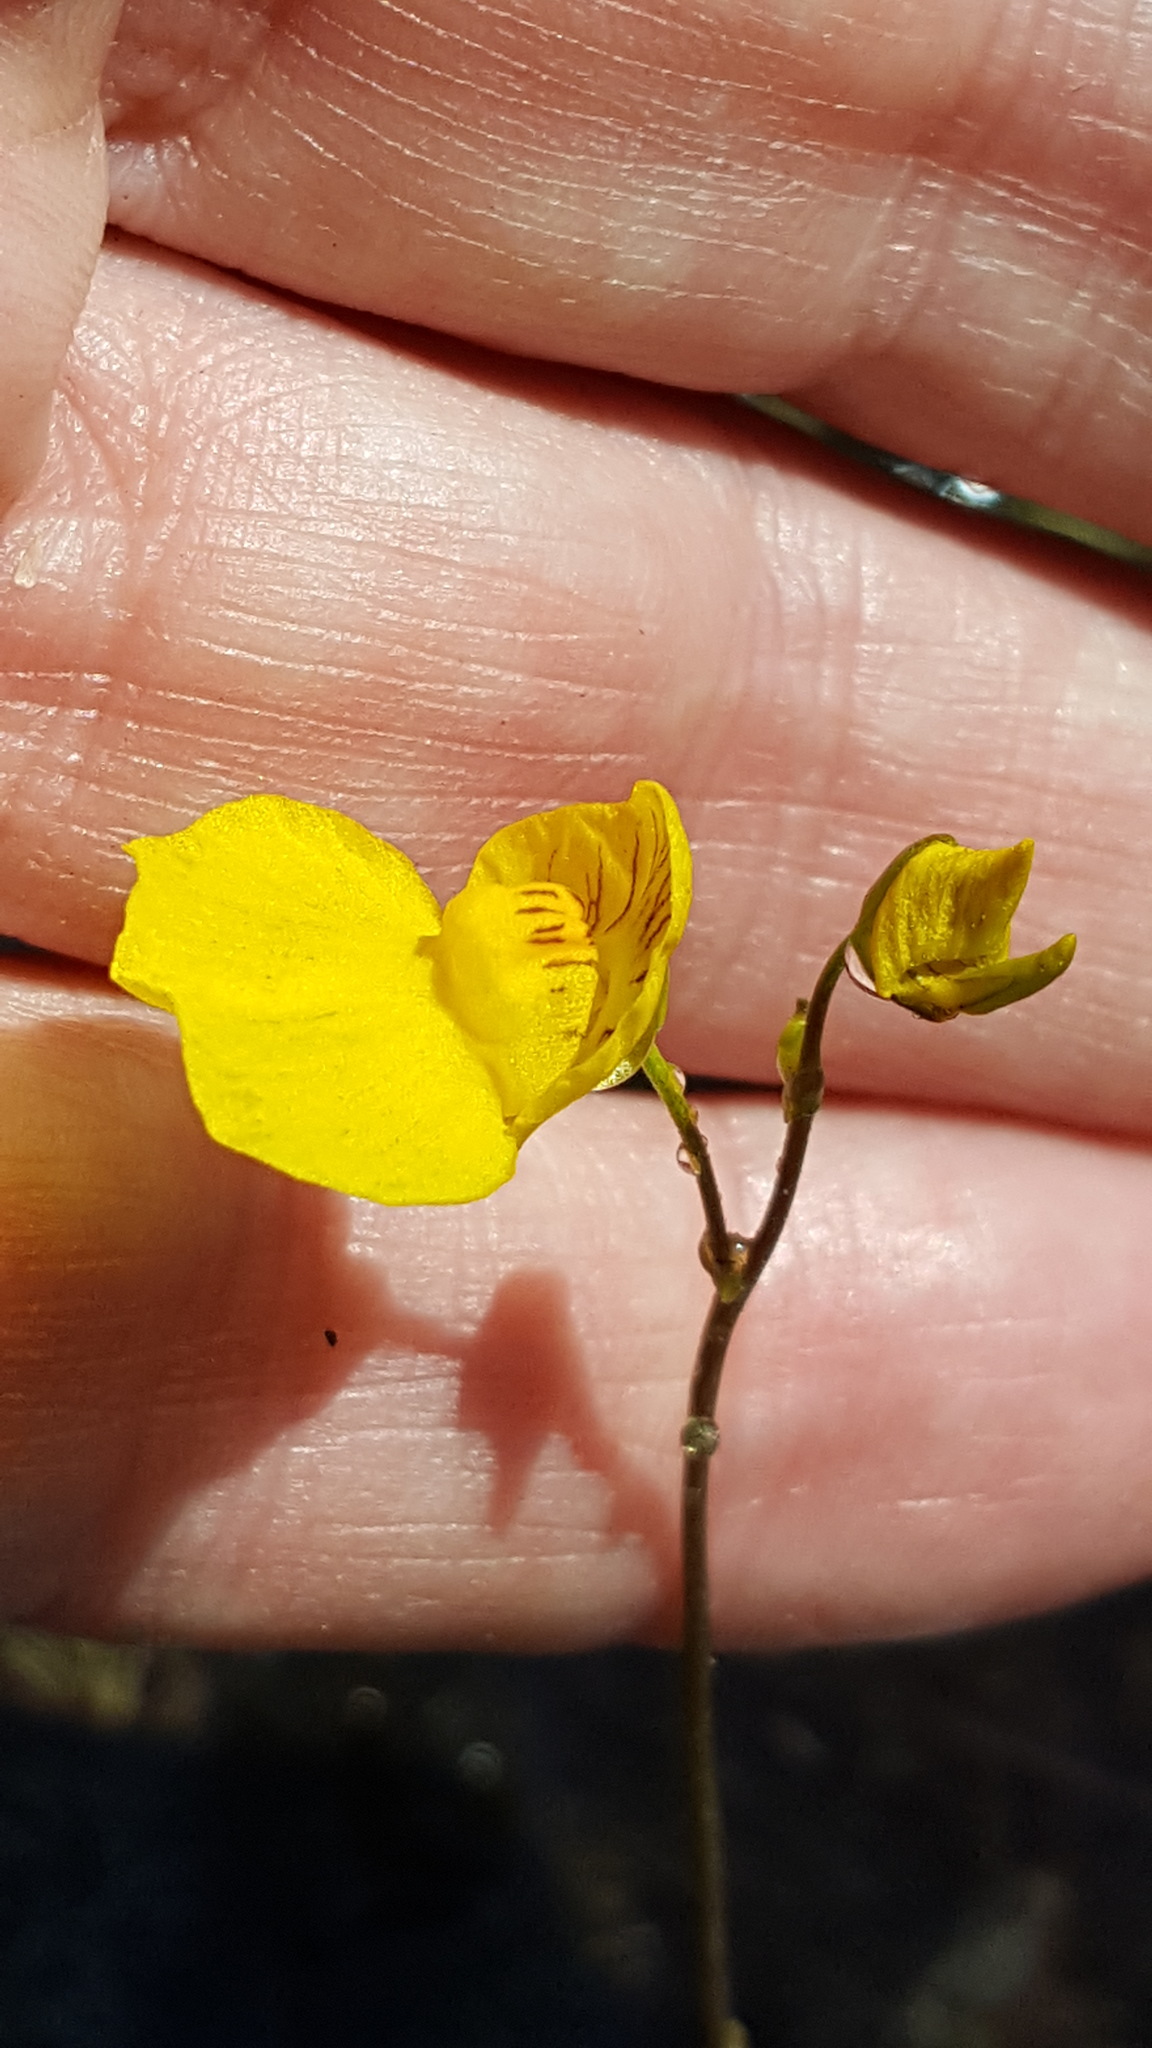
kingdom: Plantae
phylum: Tracheophyta
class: Magnoliopsida
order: Lamiales
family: Lentibulariaceae
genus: Utricularia
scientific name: Utricularia intermedia
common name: Intermediate bladderwort
